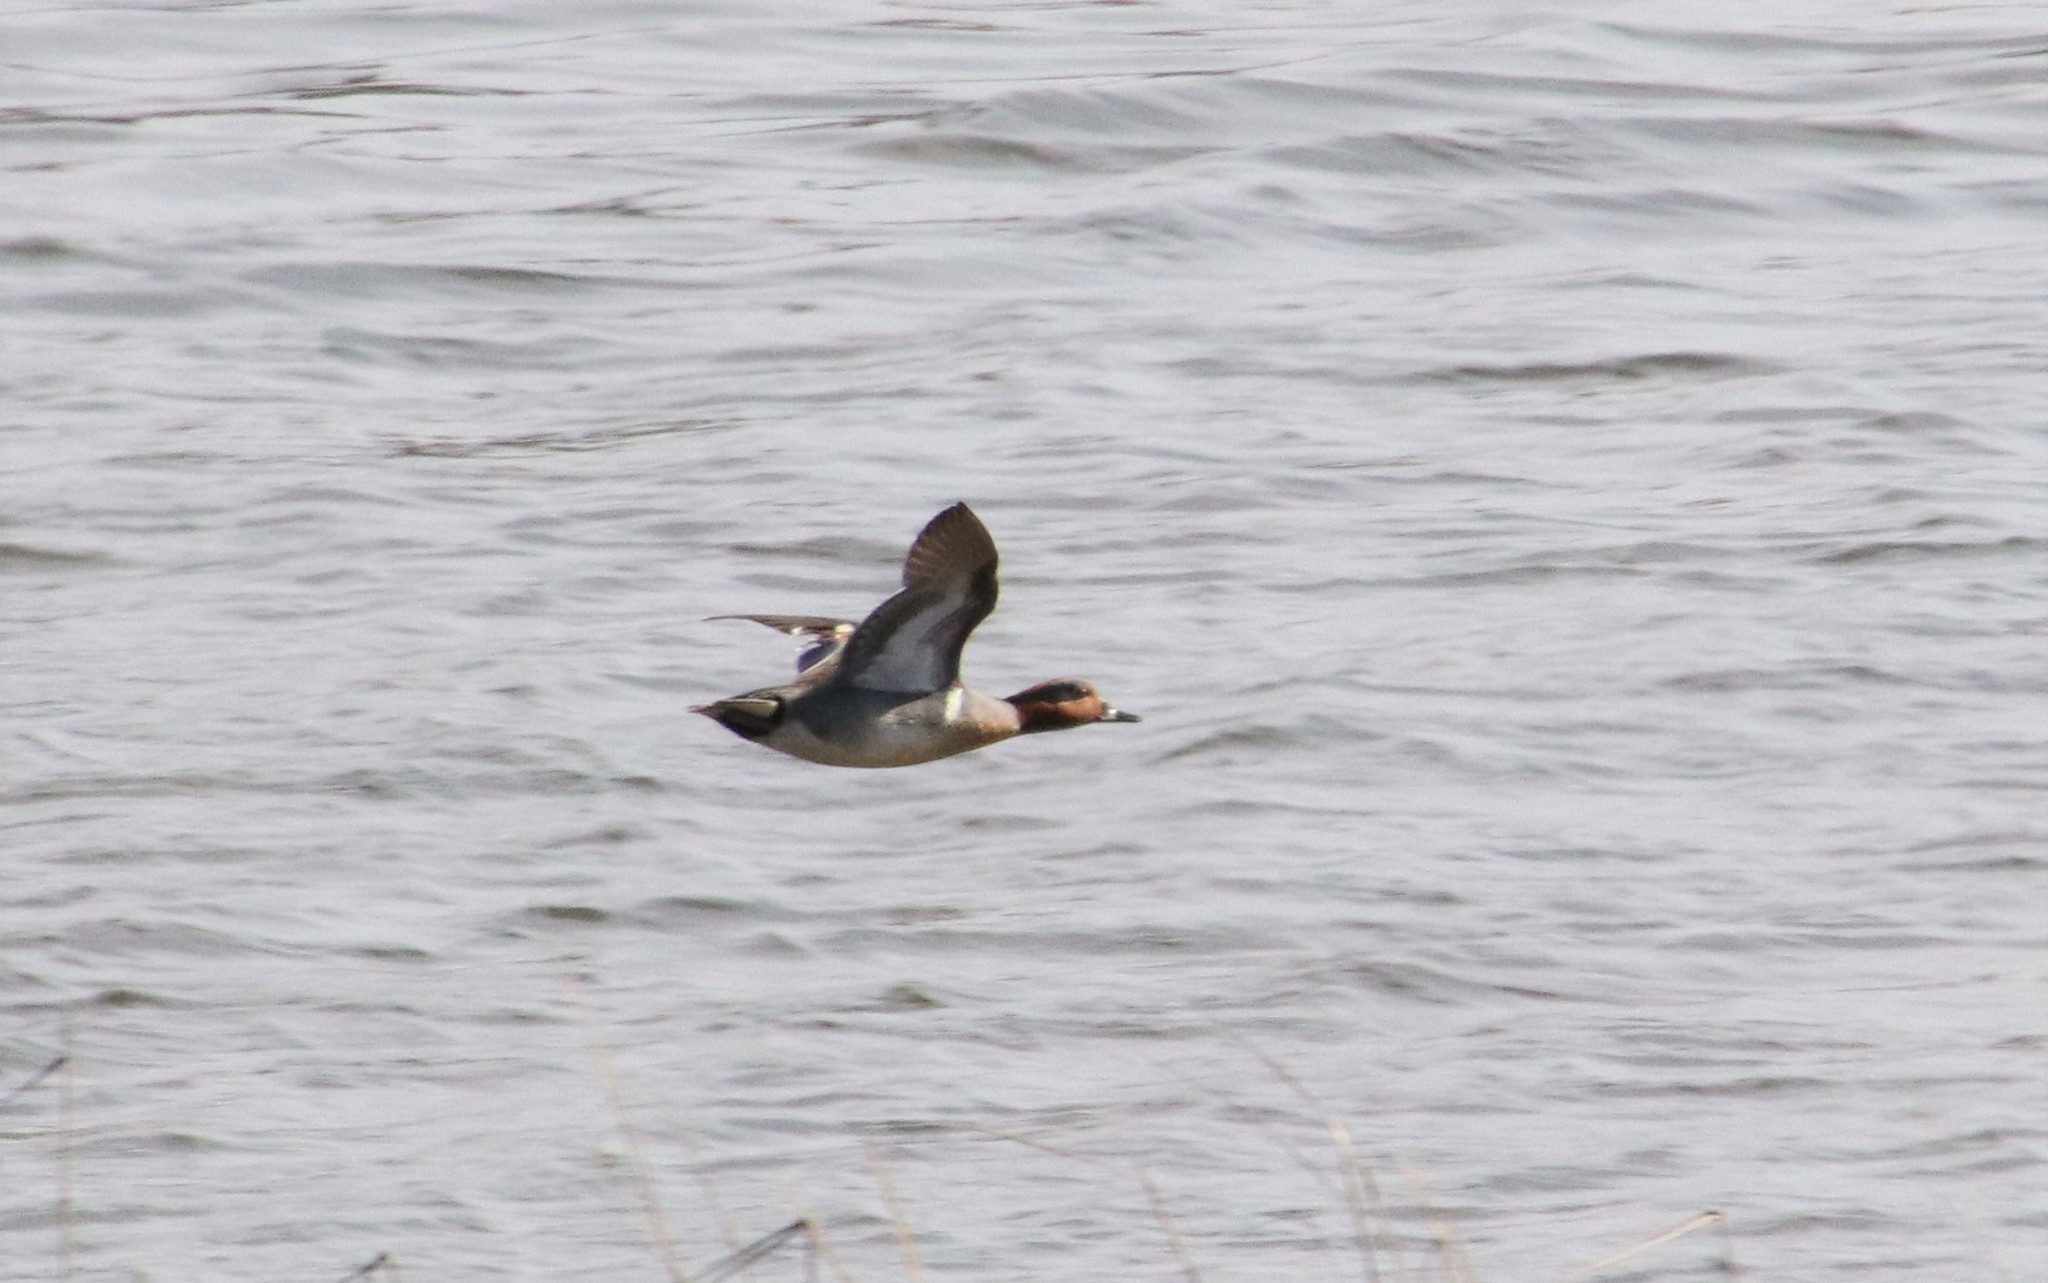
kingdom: Animalia
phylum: Chordata
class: Aves
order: Anseriformes
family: Anatidae
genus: Anas
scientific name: Anas crecca
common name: Eurasian teal
